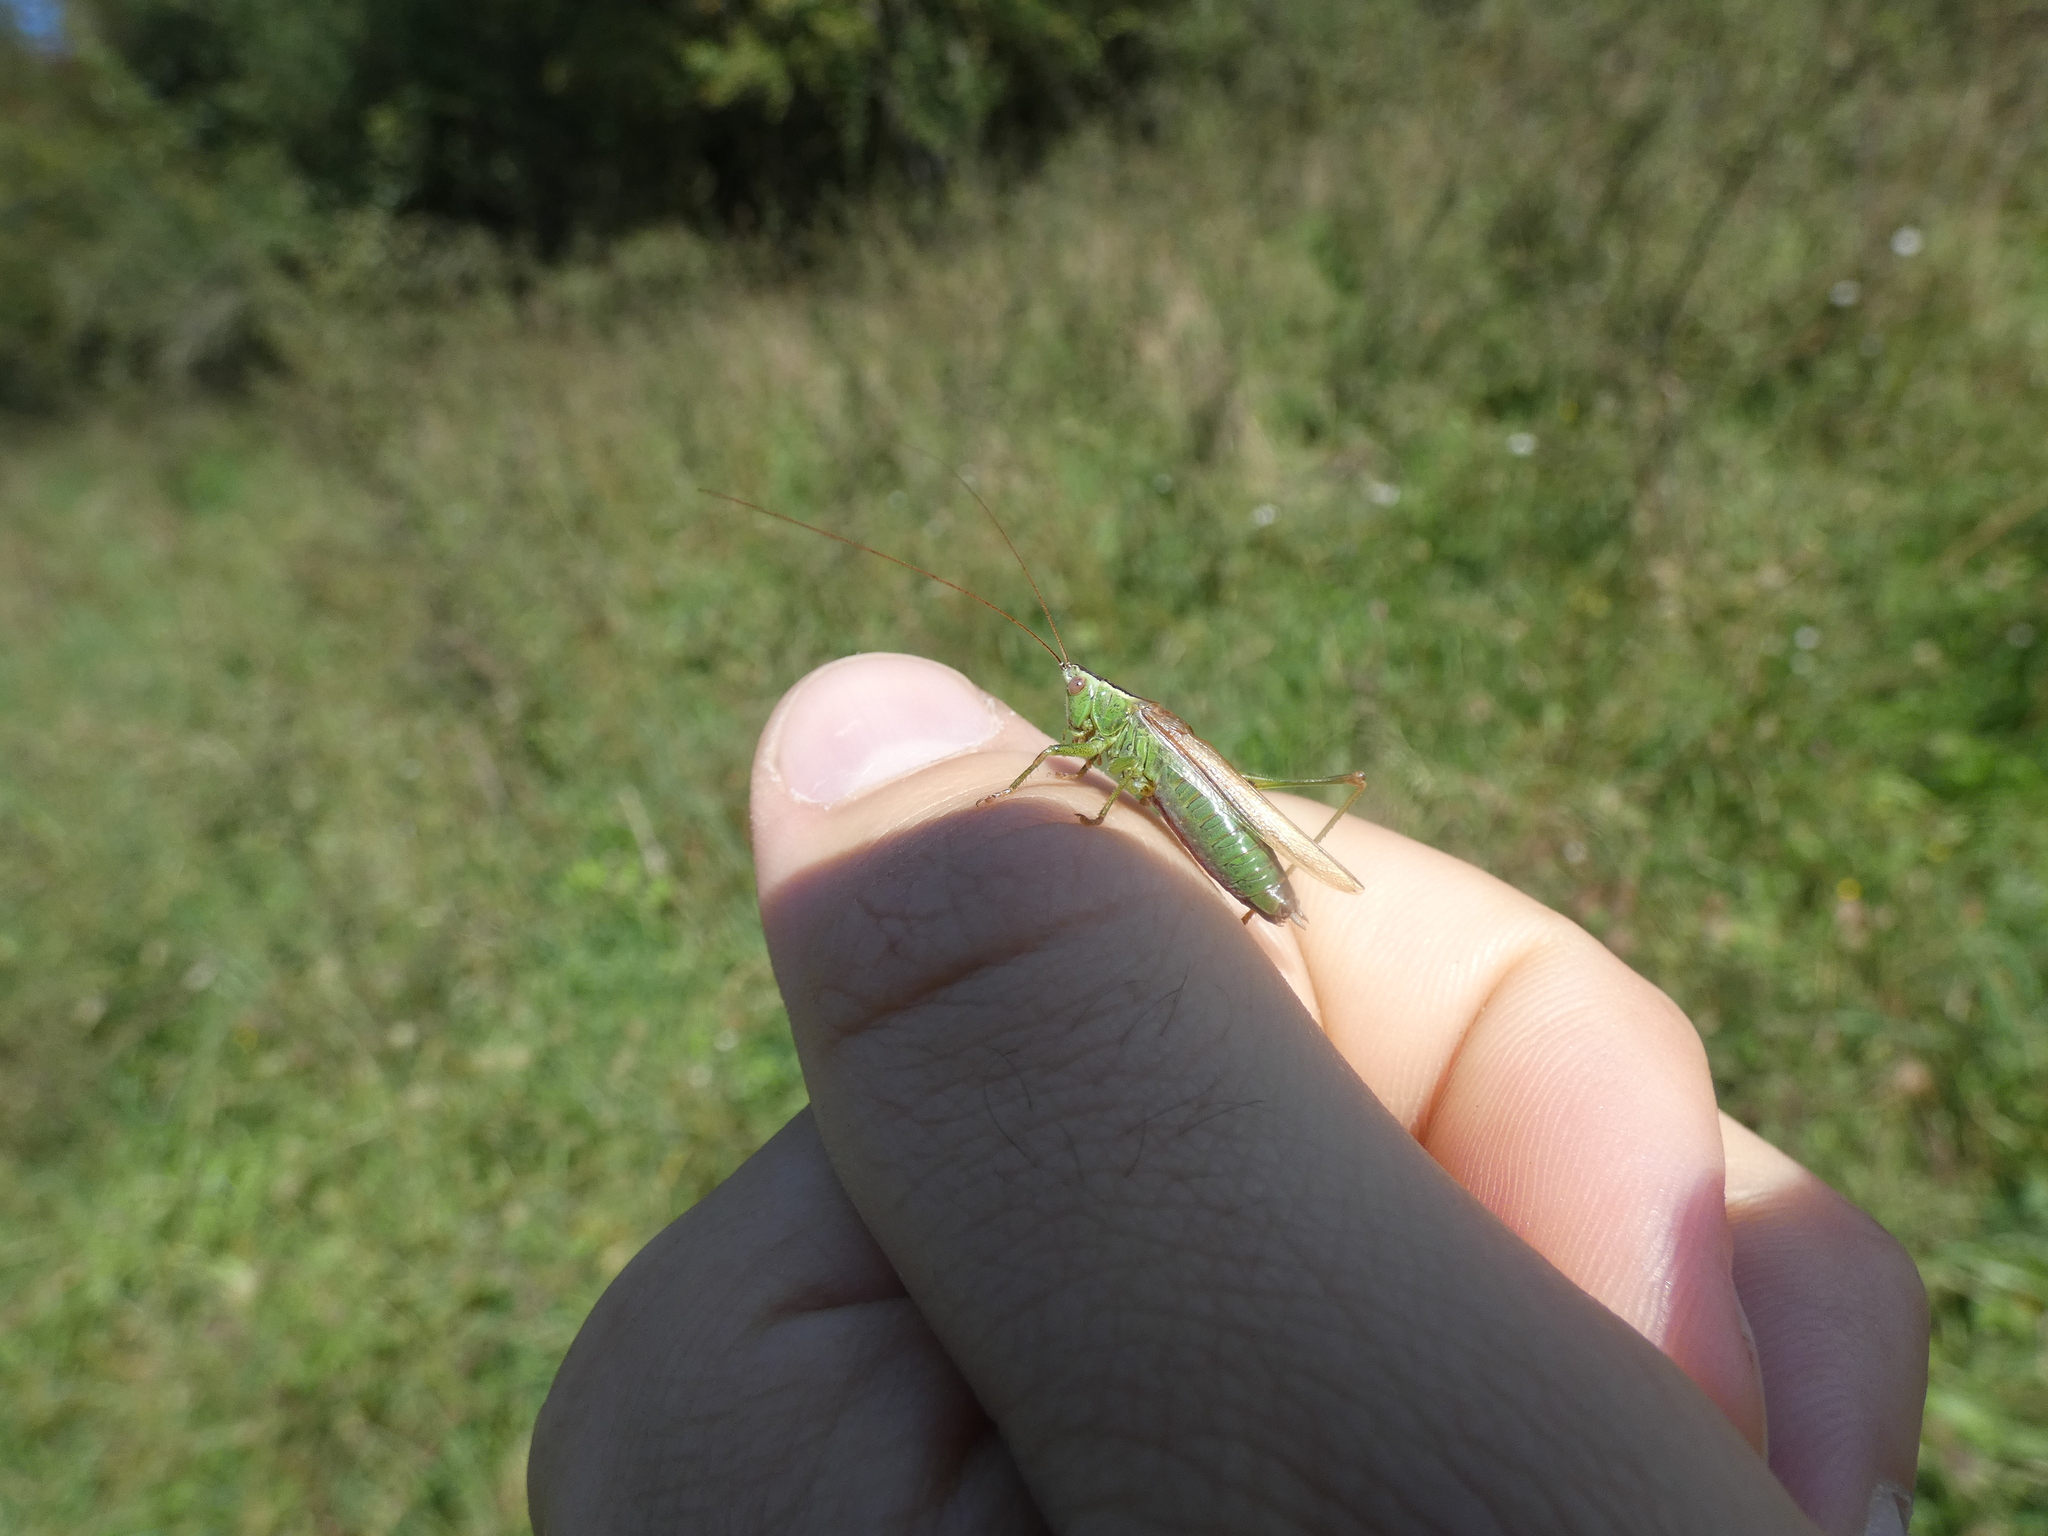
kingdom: Animalia
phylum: Arthropoda
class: Insecta
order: Orthoptera
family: Tettigoniidae
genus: Conocephalus
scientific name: Conocephalus fuscus
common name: Long-winged conehead
